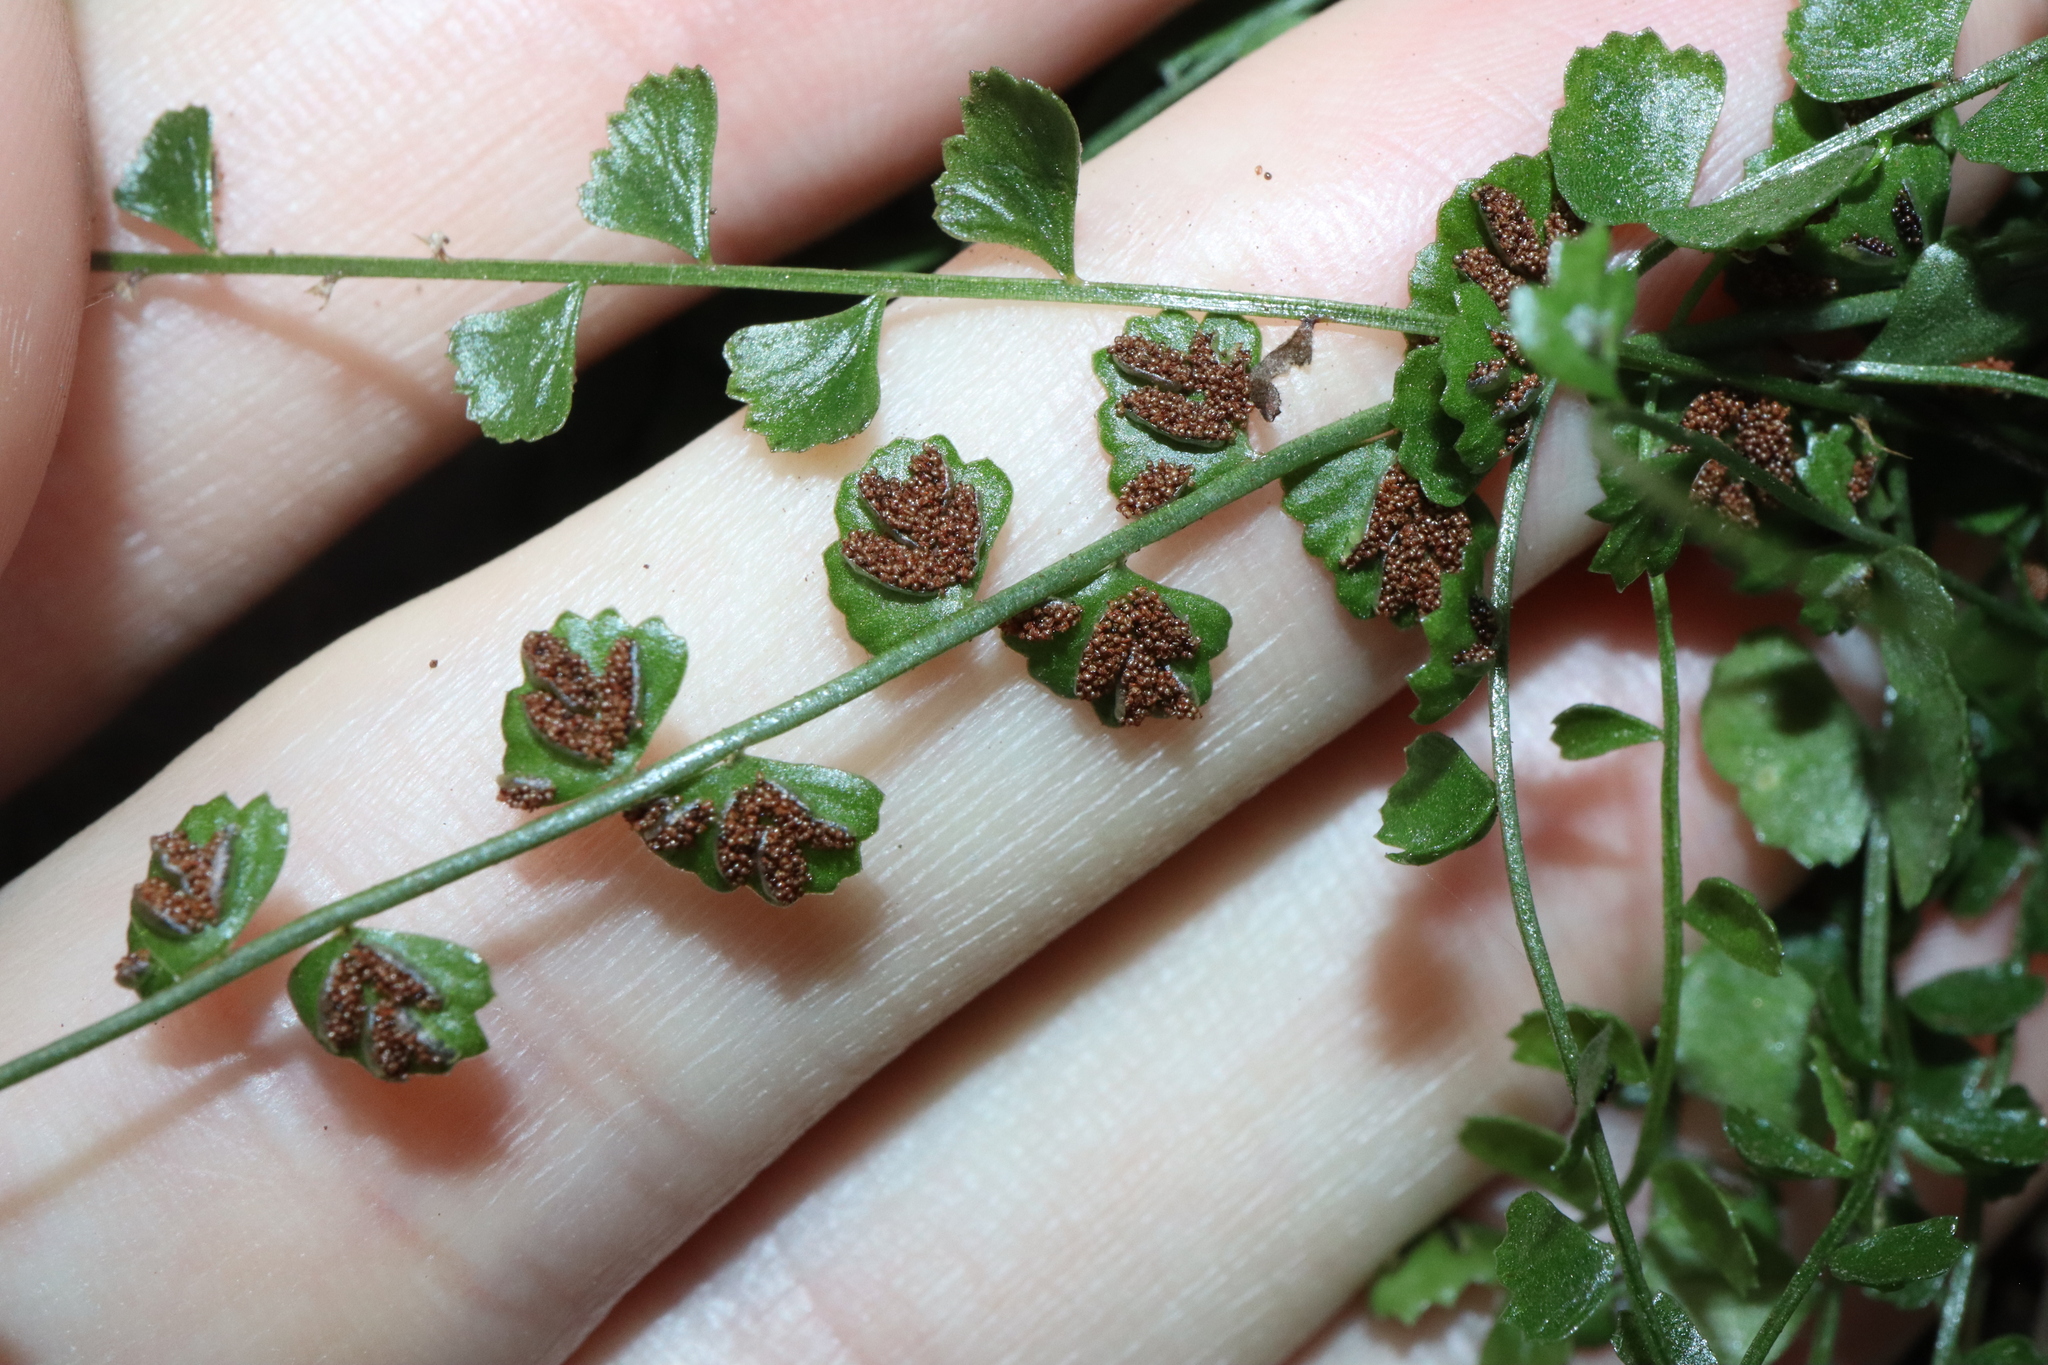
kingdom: Plantae
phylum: Tracheophyta
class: Polypodiopsida
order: Polypodiales
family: Aspleniaceae
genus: Asplenium
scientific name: Asplenium flabellifolium
